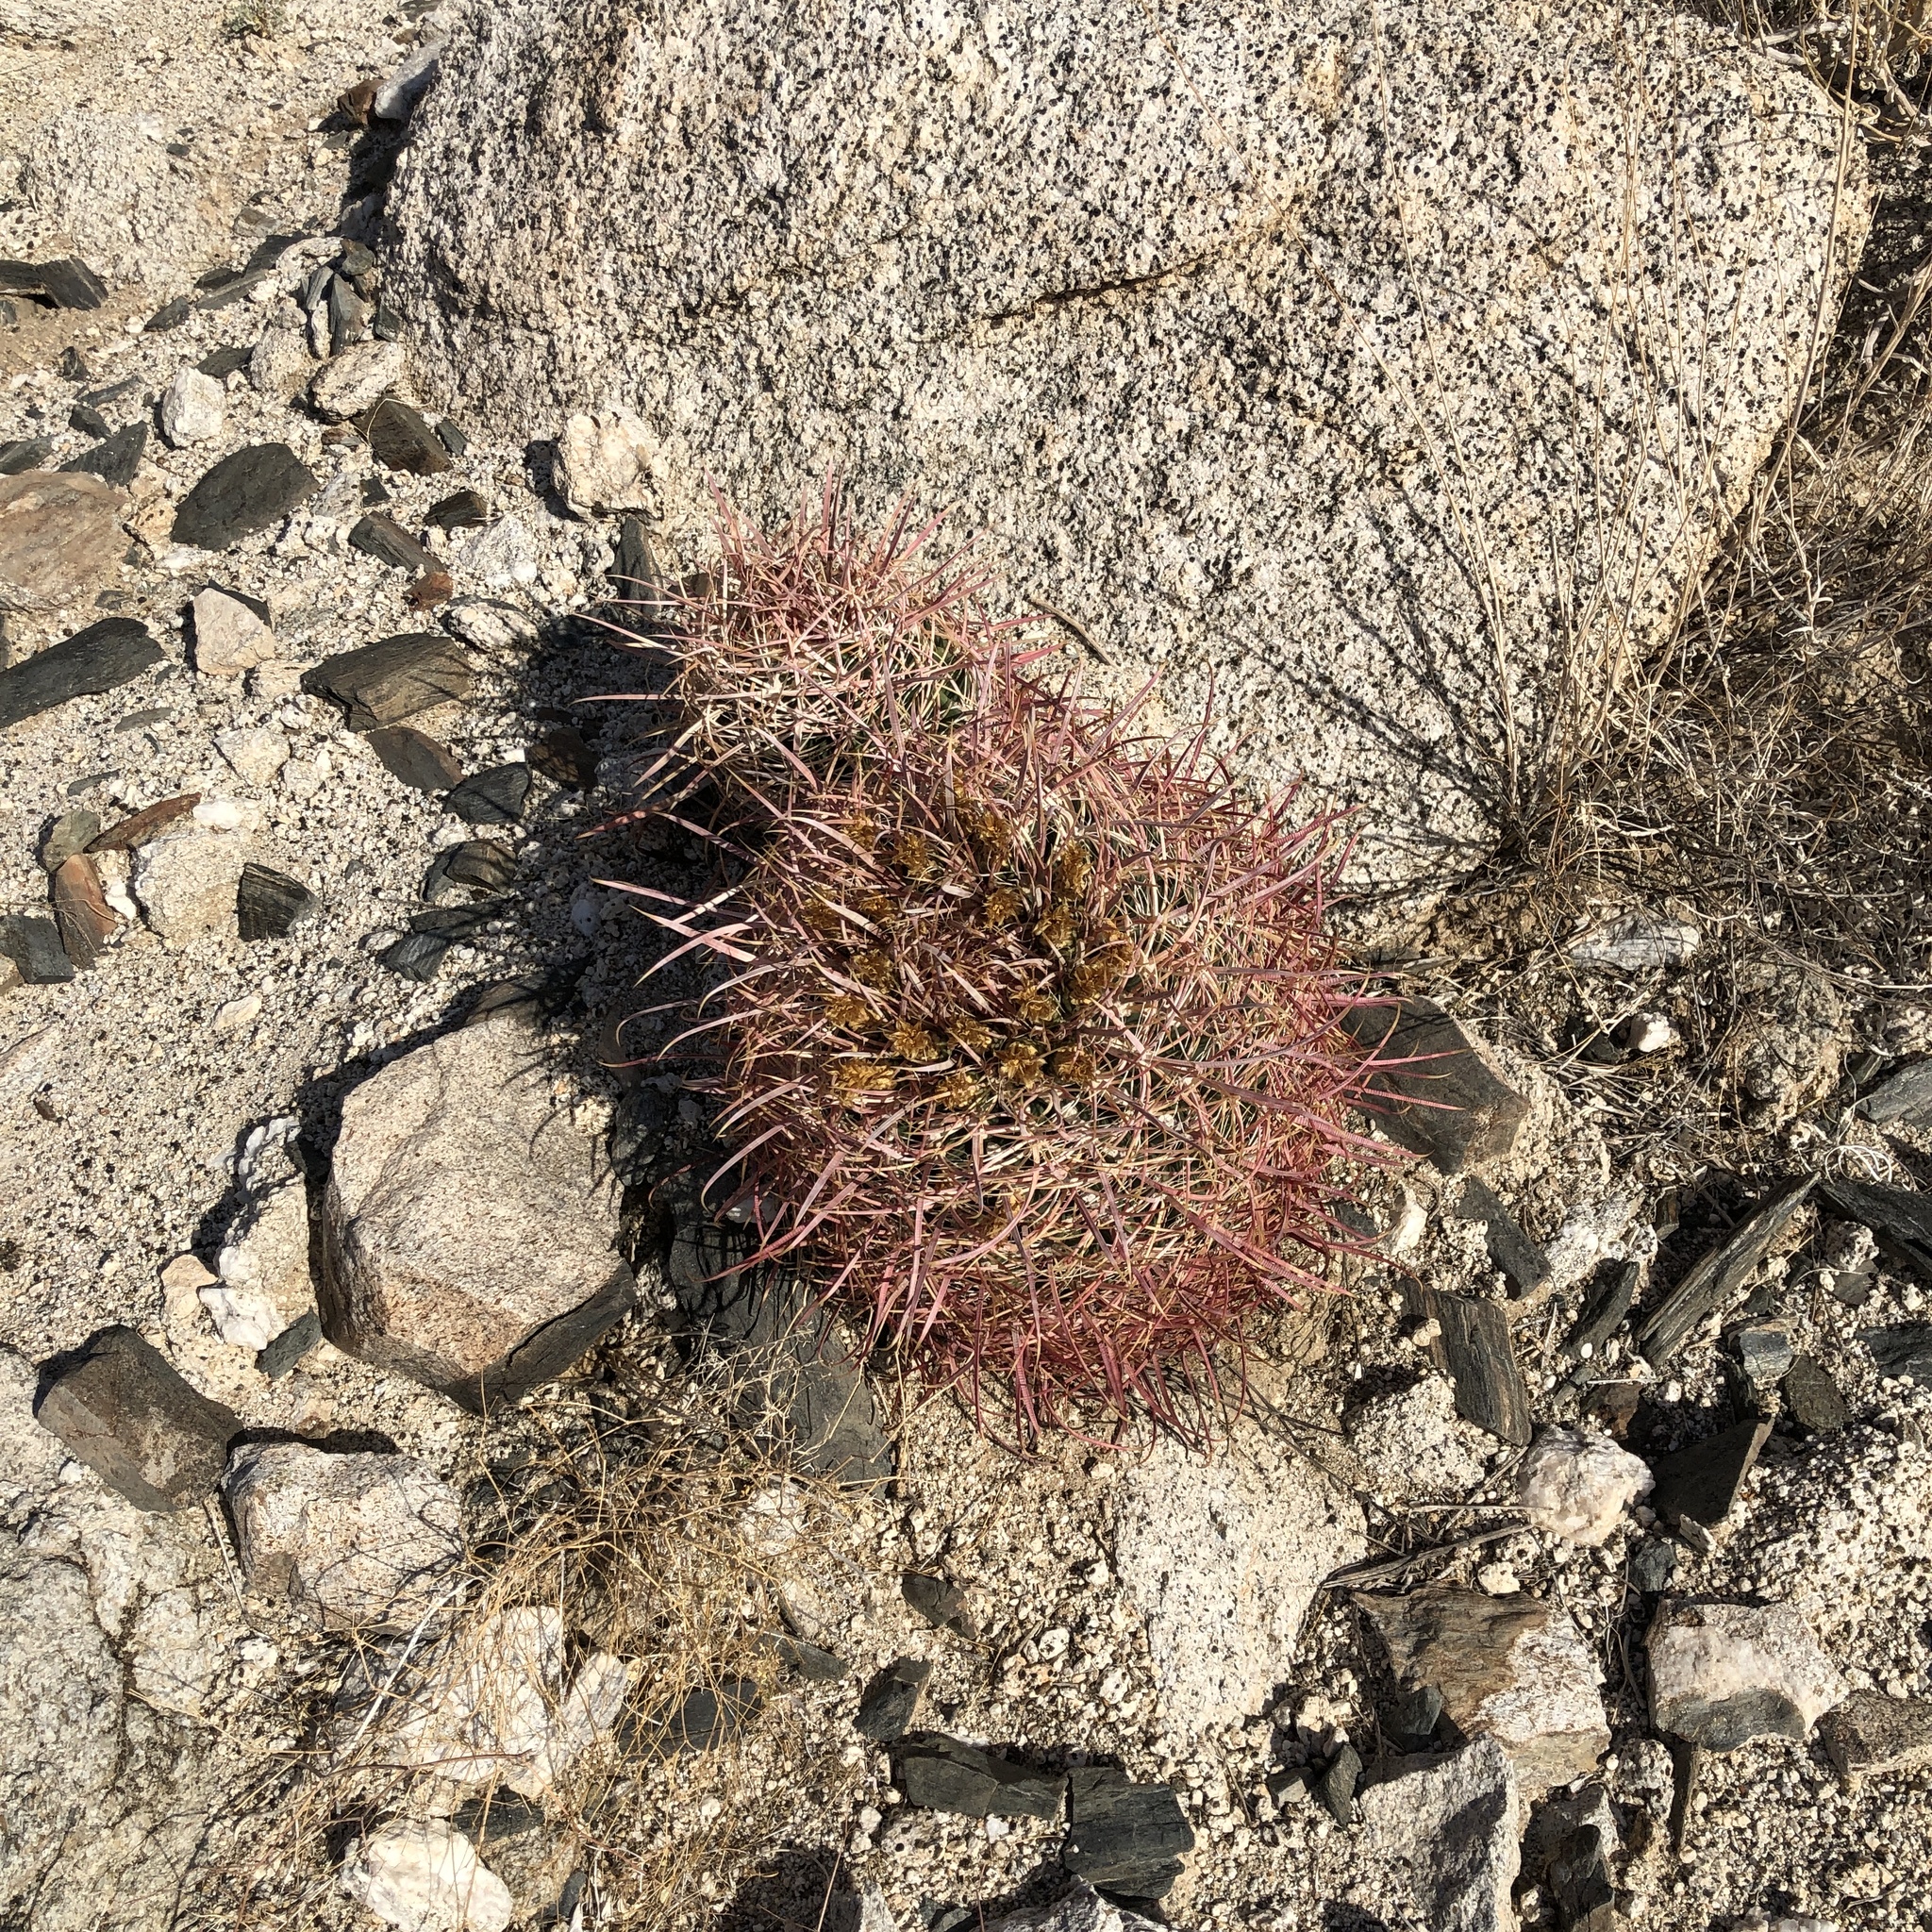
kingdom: Plantae
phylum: Tracheophyta
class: Magnoliopsida
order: Caryophyllales
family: Cactaceae
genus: Ferocactus
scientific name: Ferocactus cylindraceus
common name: California barrel cactus
